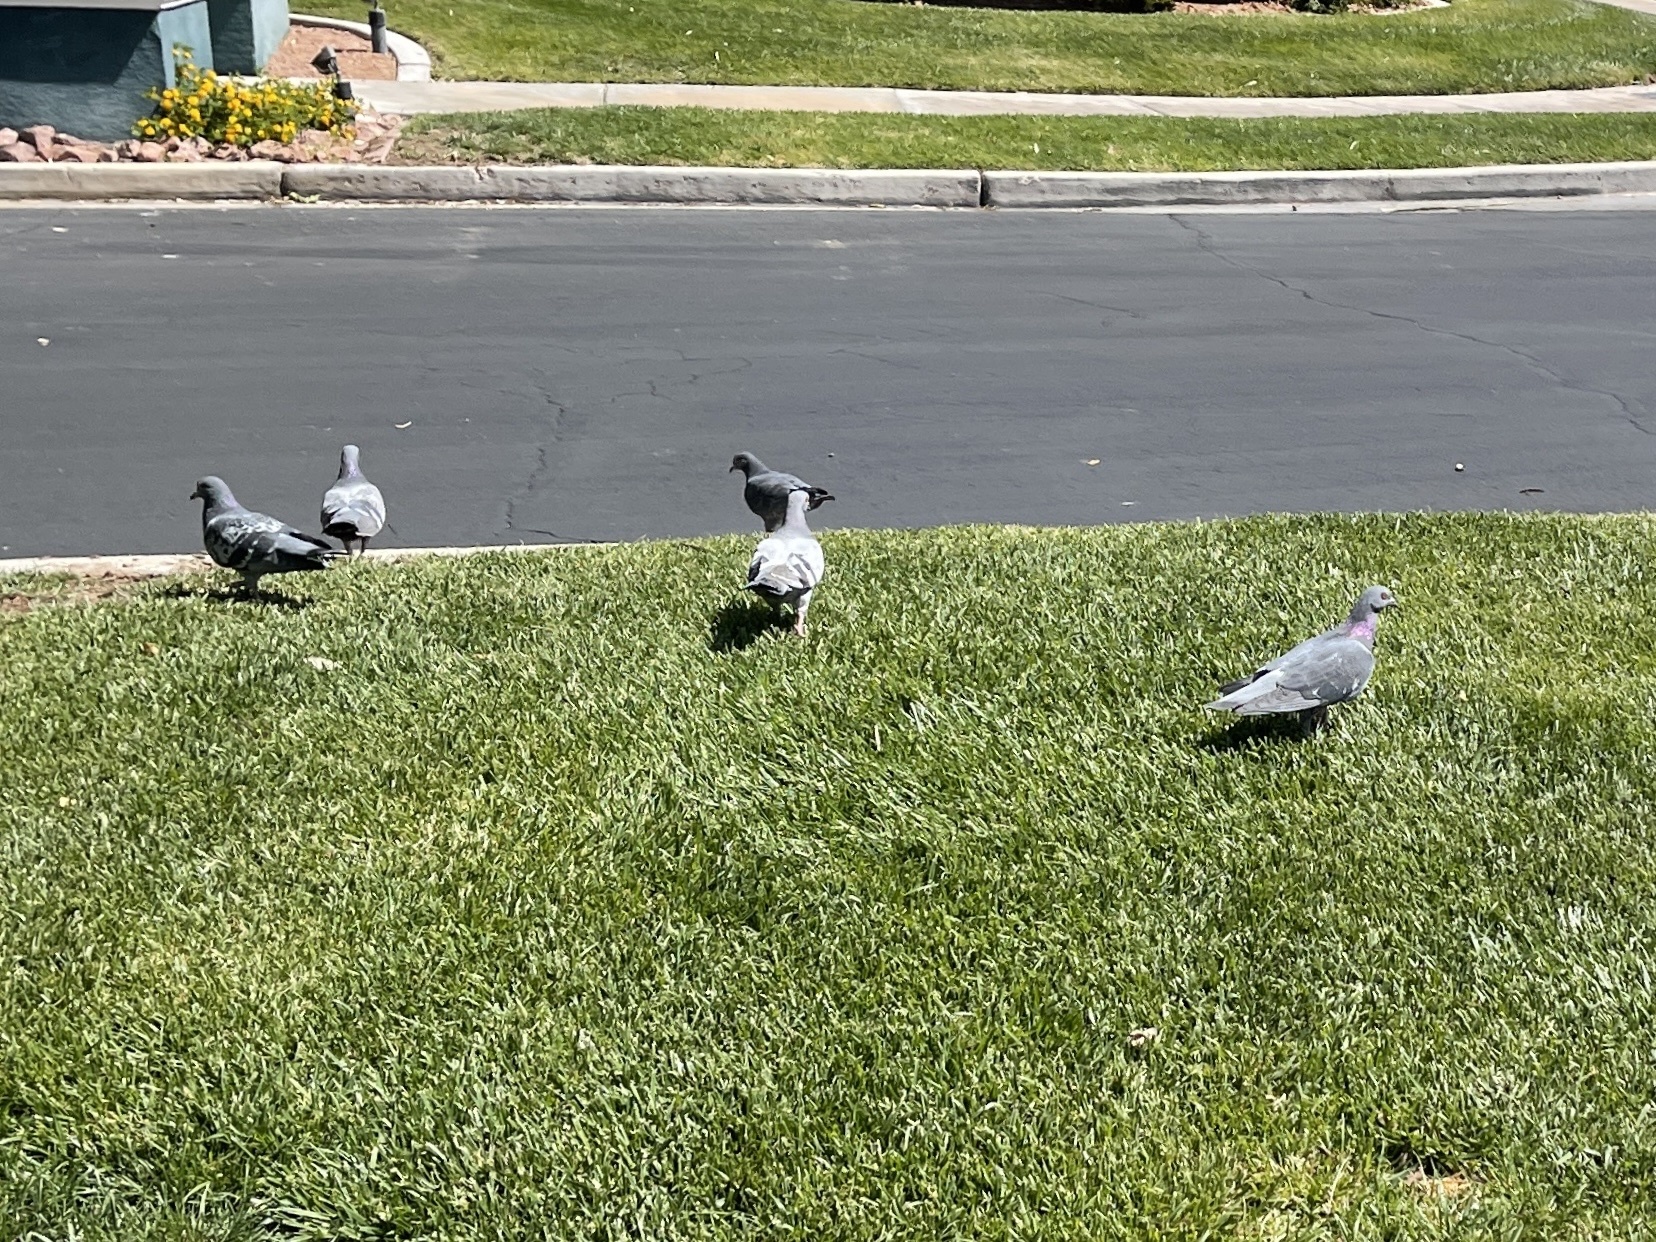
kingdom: Animalia
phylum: Chordata
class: Aves
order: Columbiformes
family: Columbidae
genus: Columba
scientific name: Columba livia
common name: Rock pigeon
